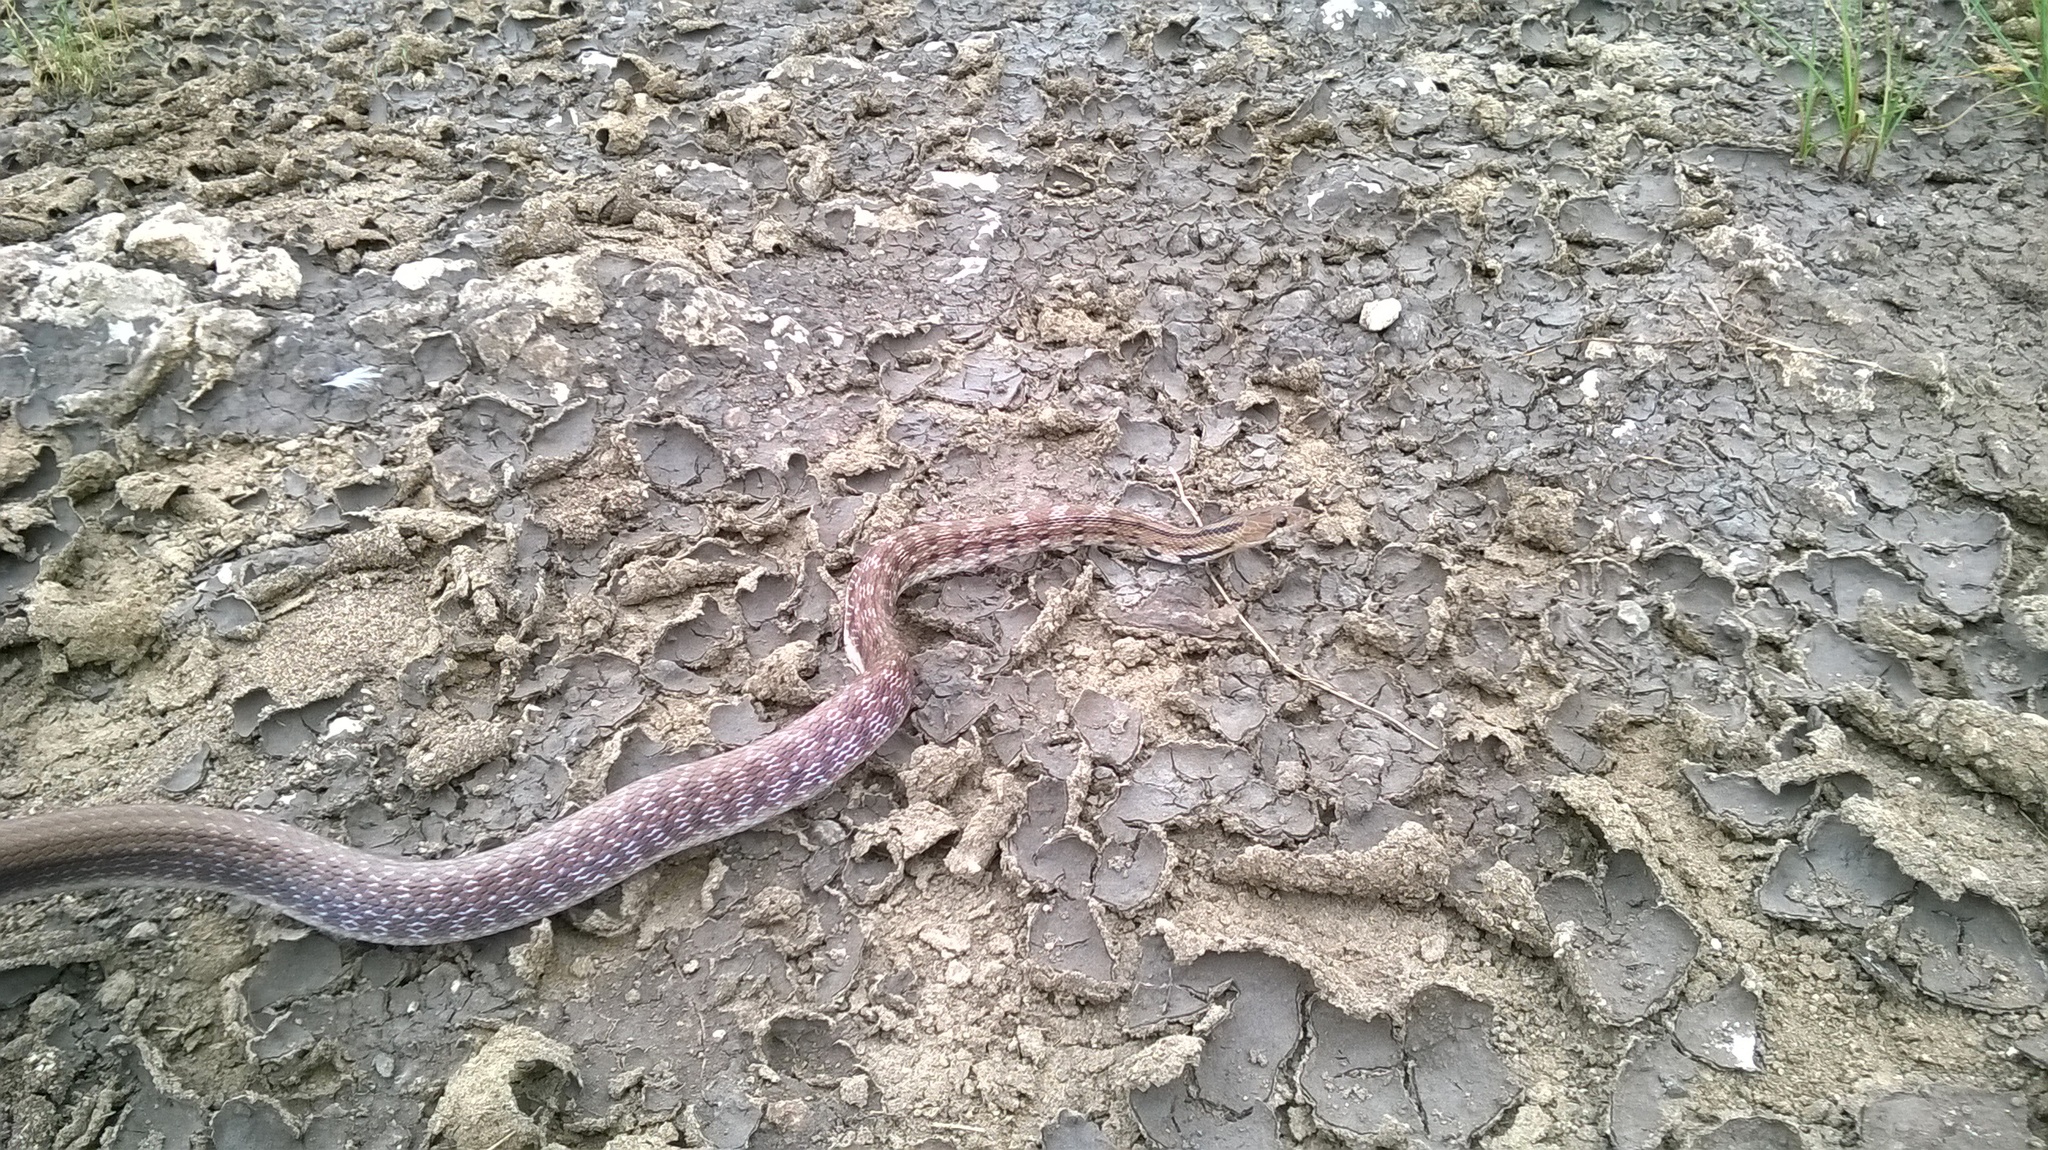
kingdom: Animalia
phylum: Chordata
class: Squamata
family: Colubridae
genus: Coelognathus
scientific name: Coelognathus helena
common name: Trinket snake
